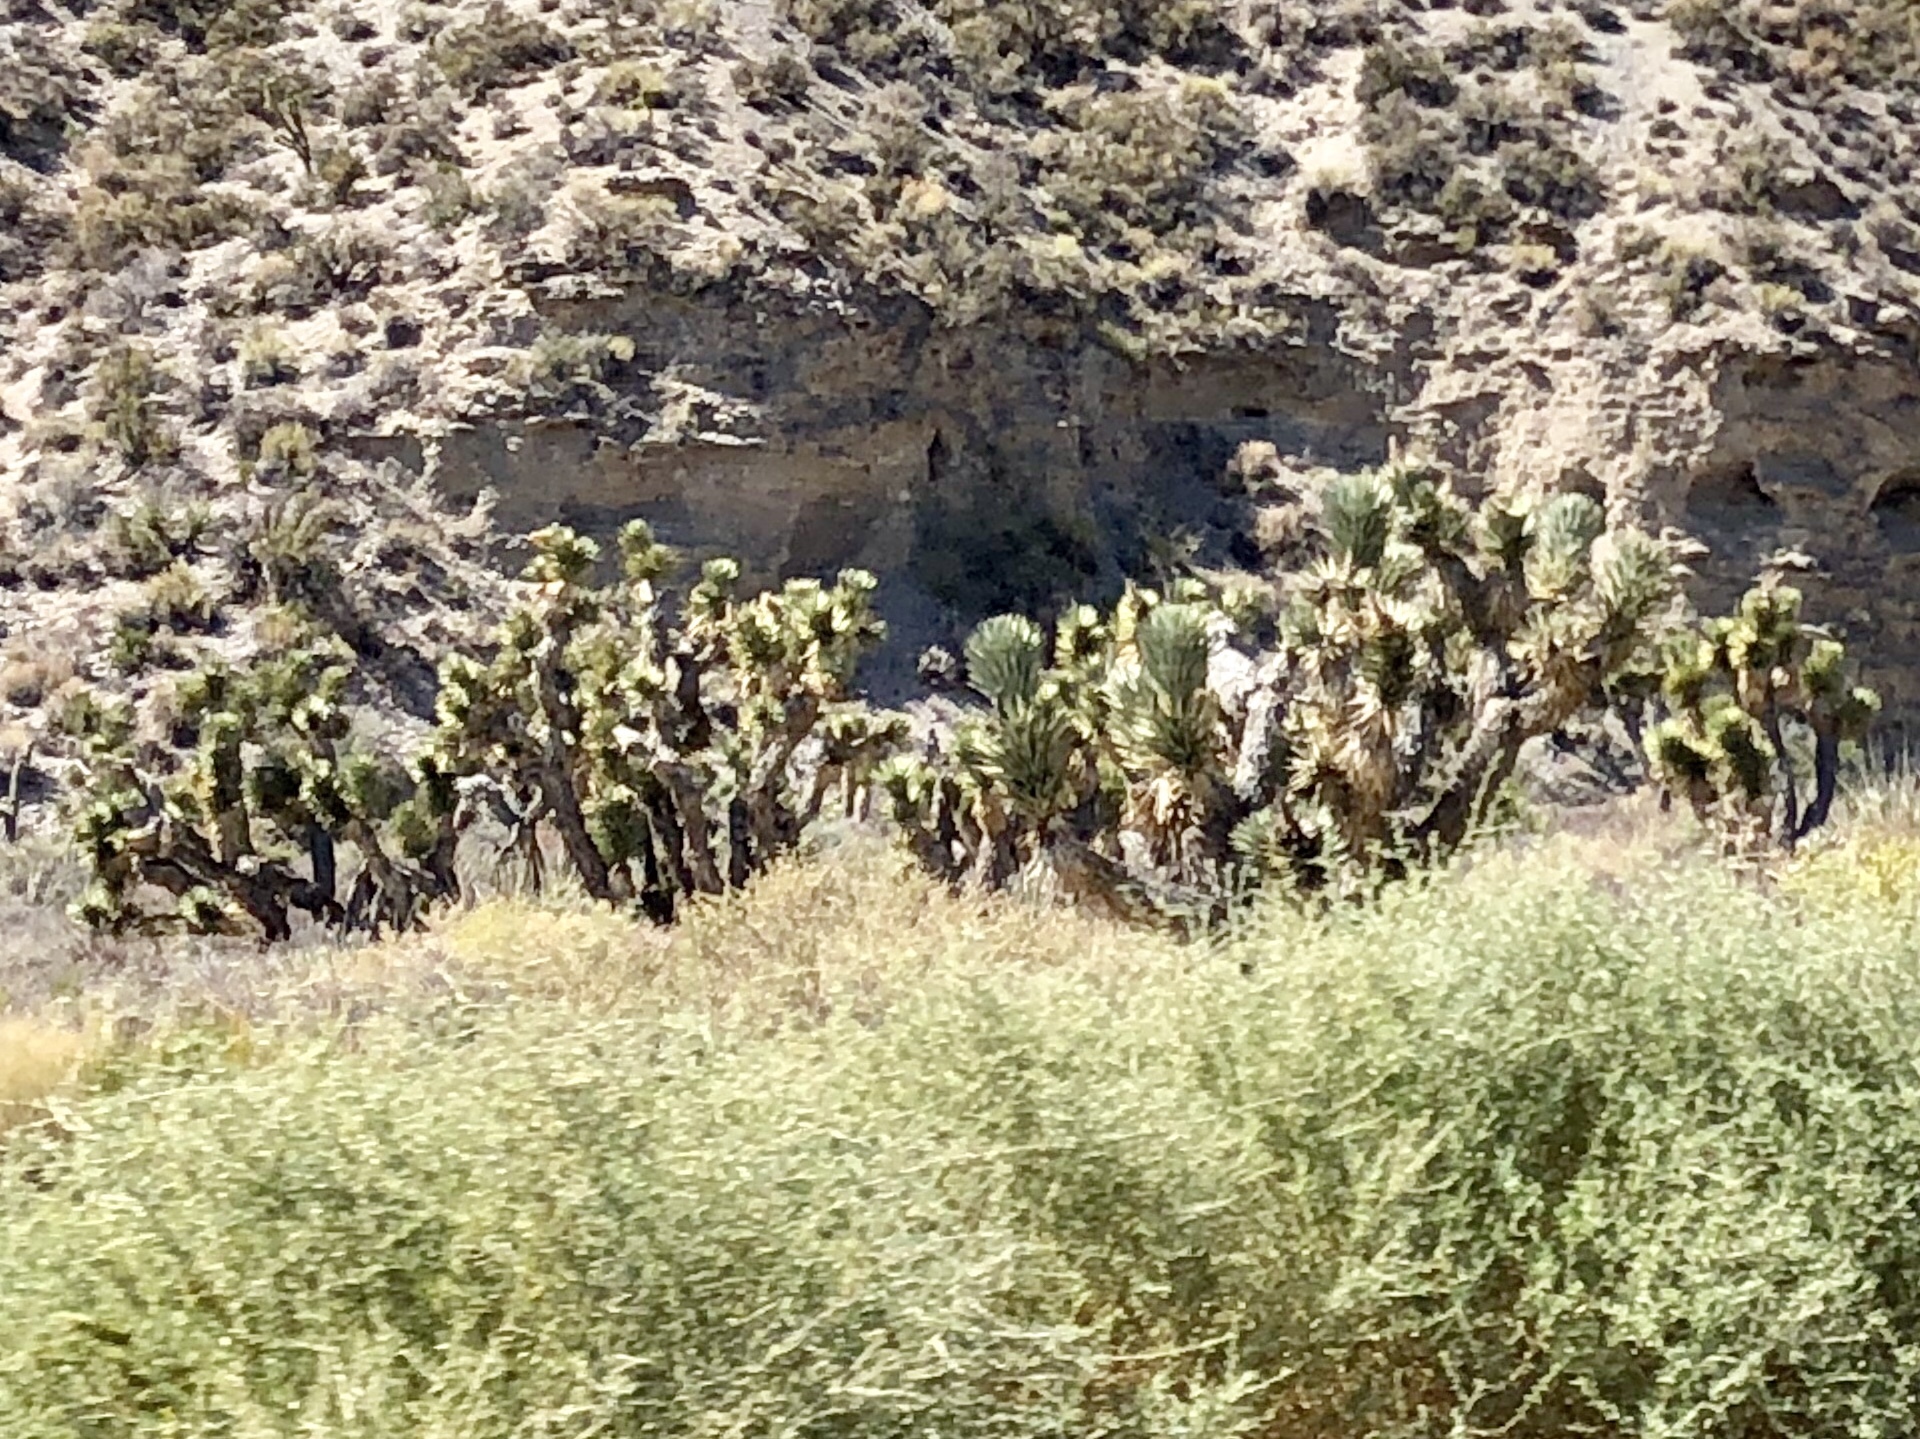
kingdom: Plantae
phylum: Tracheophyta
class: Liliopsida
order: Asparagales
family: Asparagaceae
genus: Yucca
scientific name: Yucca brevifolia
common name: Joshua tree
